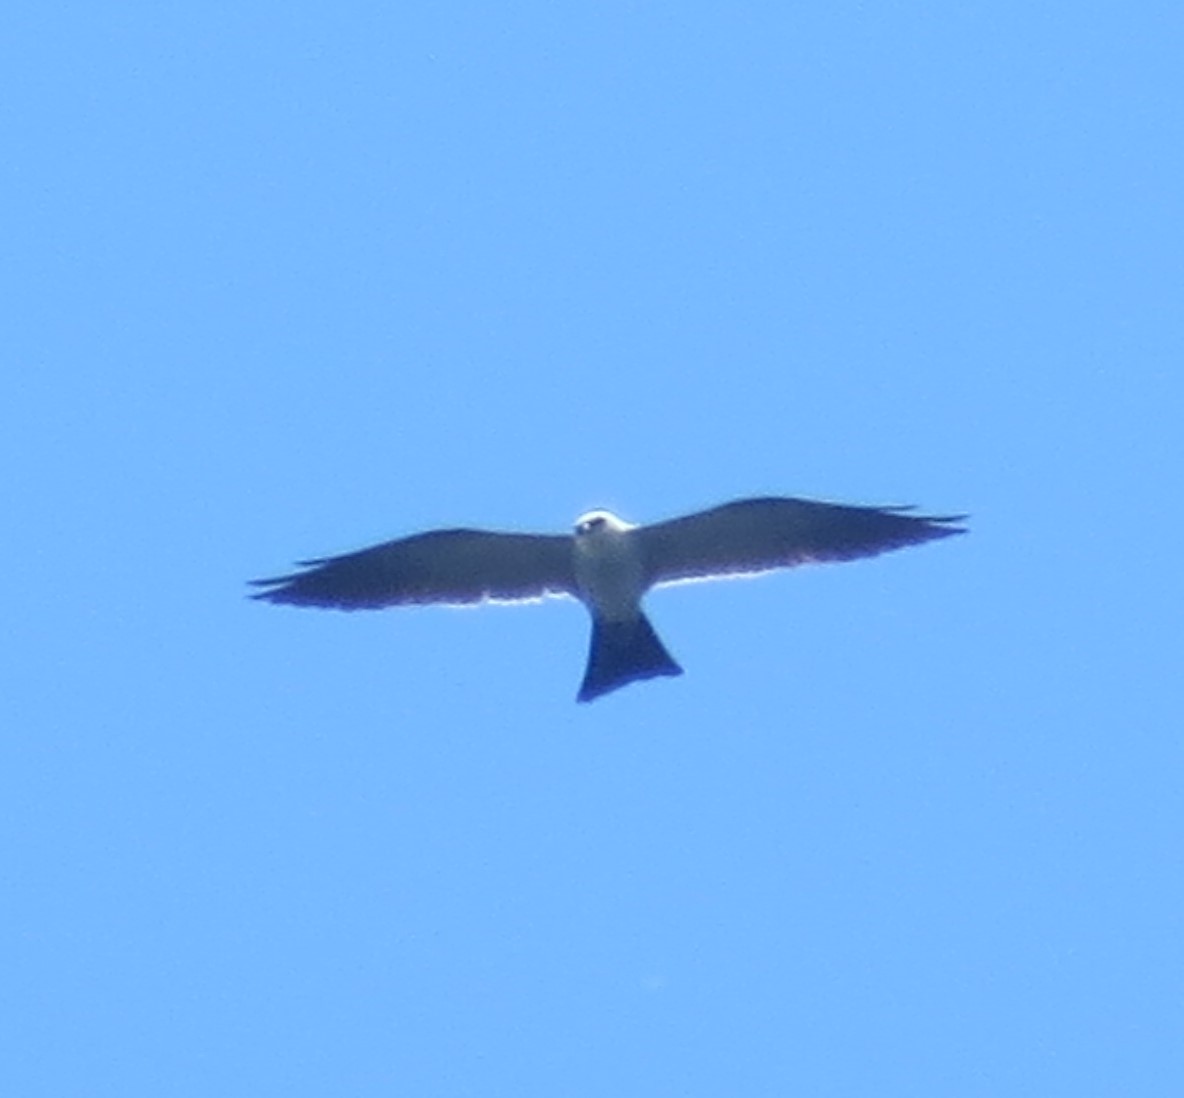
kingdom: Animalia
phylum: Chordata
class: Aves
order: Accipitriformes
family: Accipitridae
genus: Ictinia
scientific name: Ictinia mississippiensis
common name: Mississippi kite
